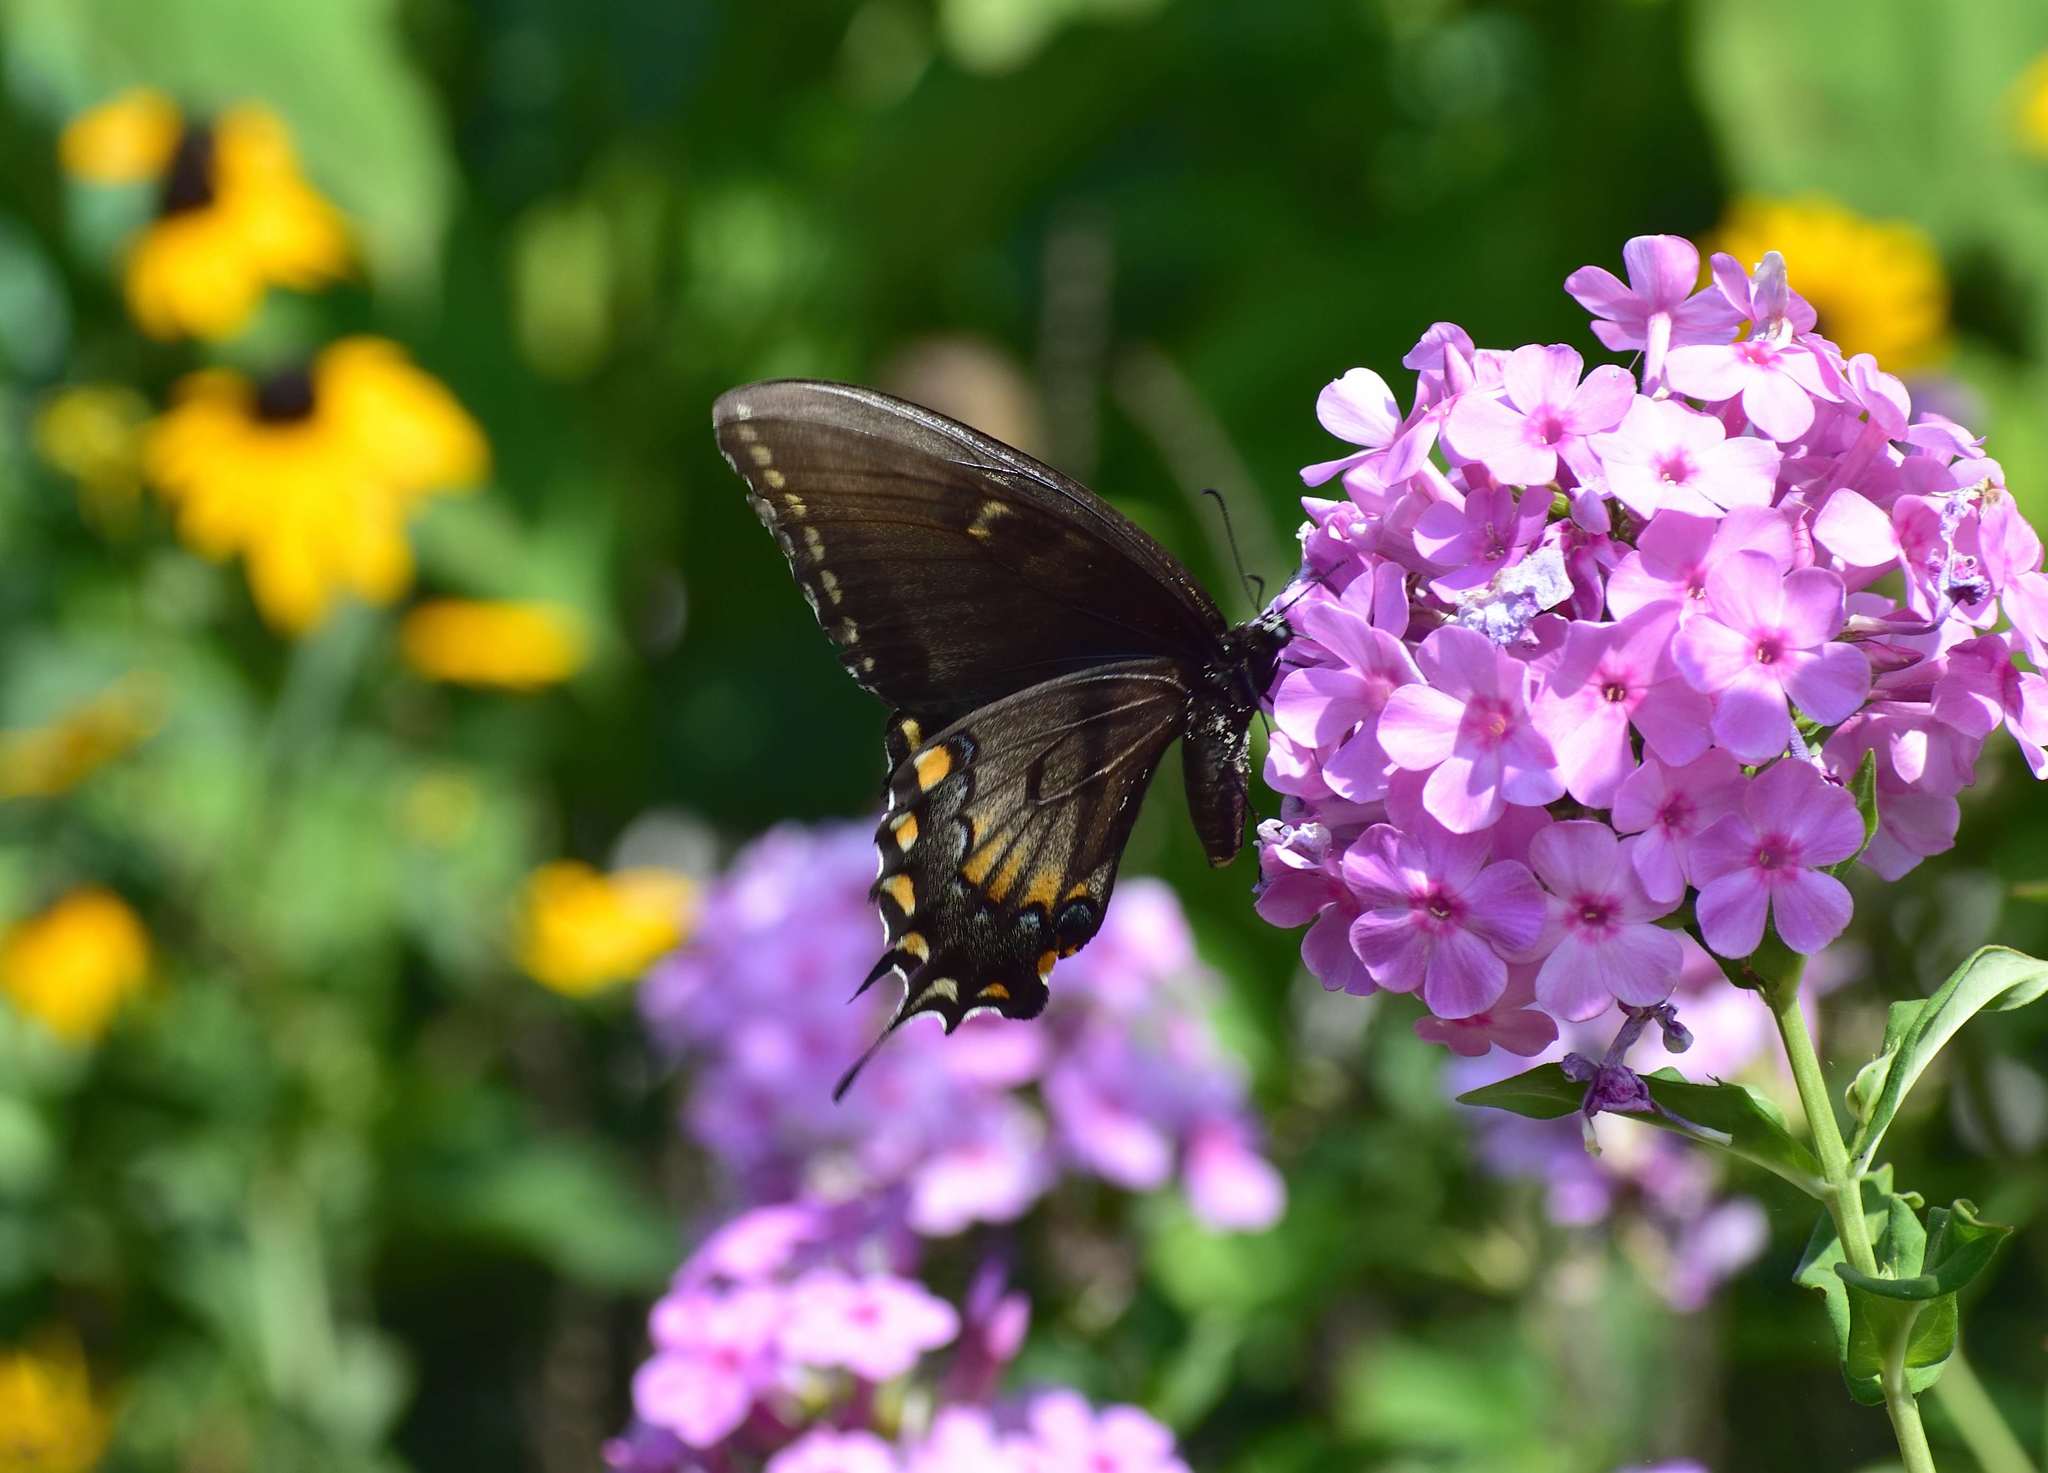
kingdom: Animalia
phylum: Arthropoda
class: Insecta
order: Lepidoptera
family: Papilionidae
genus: Papilio
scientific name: Papilio glaucus
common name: Tiger swallowtail
